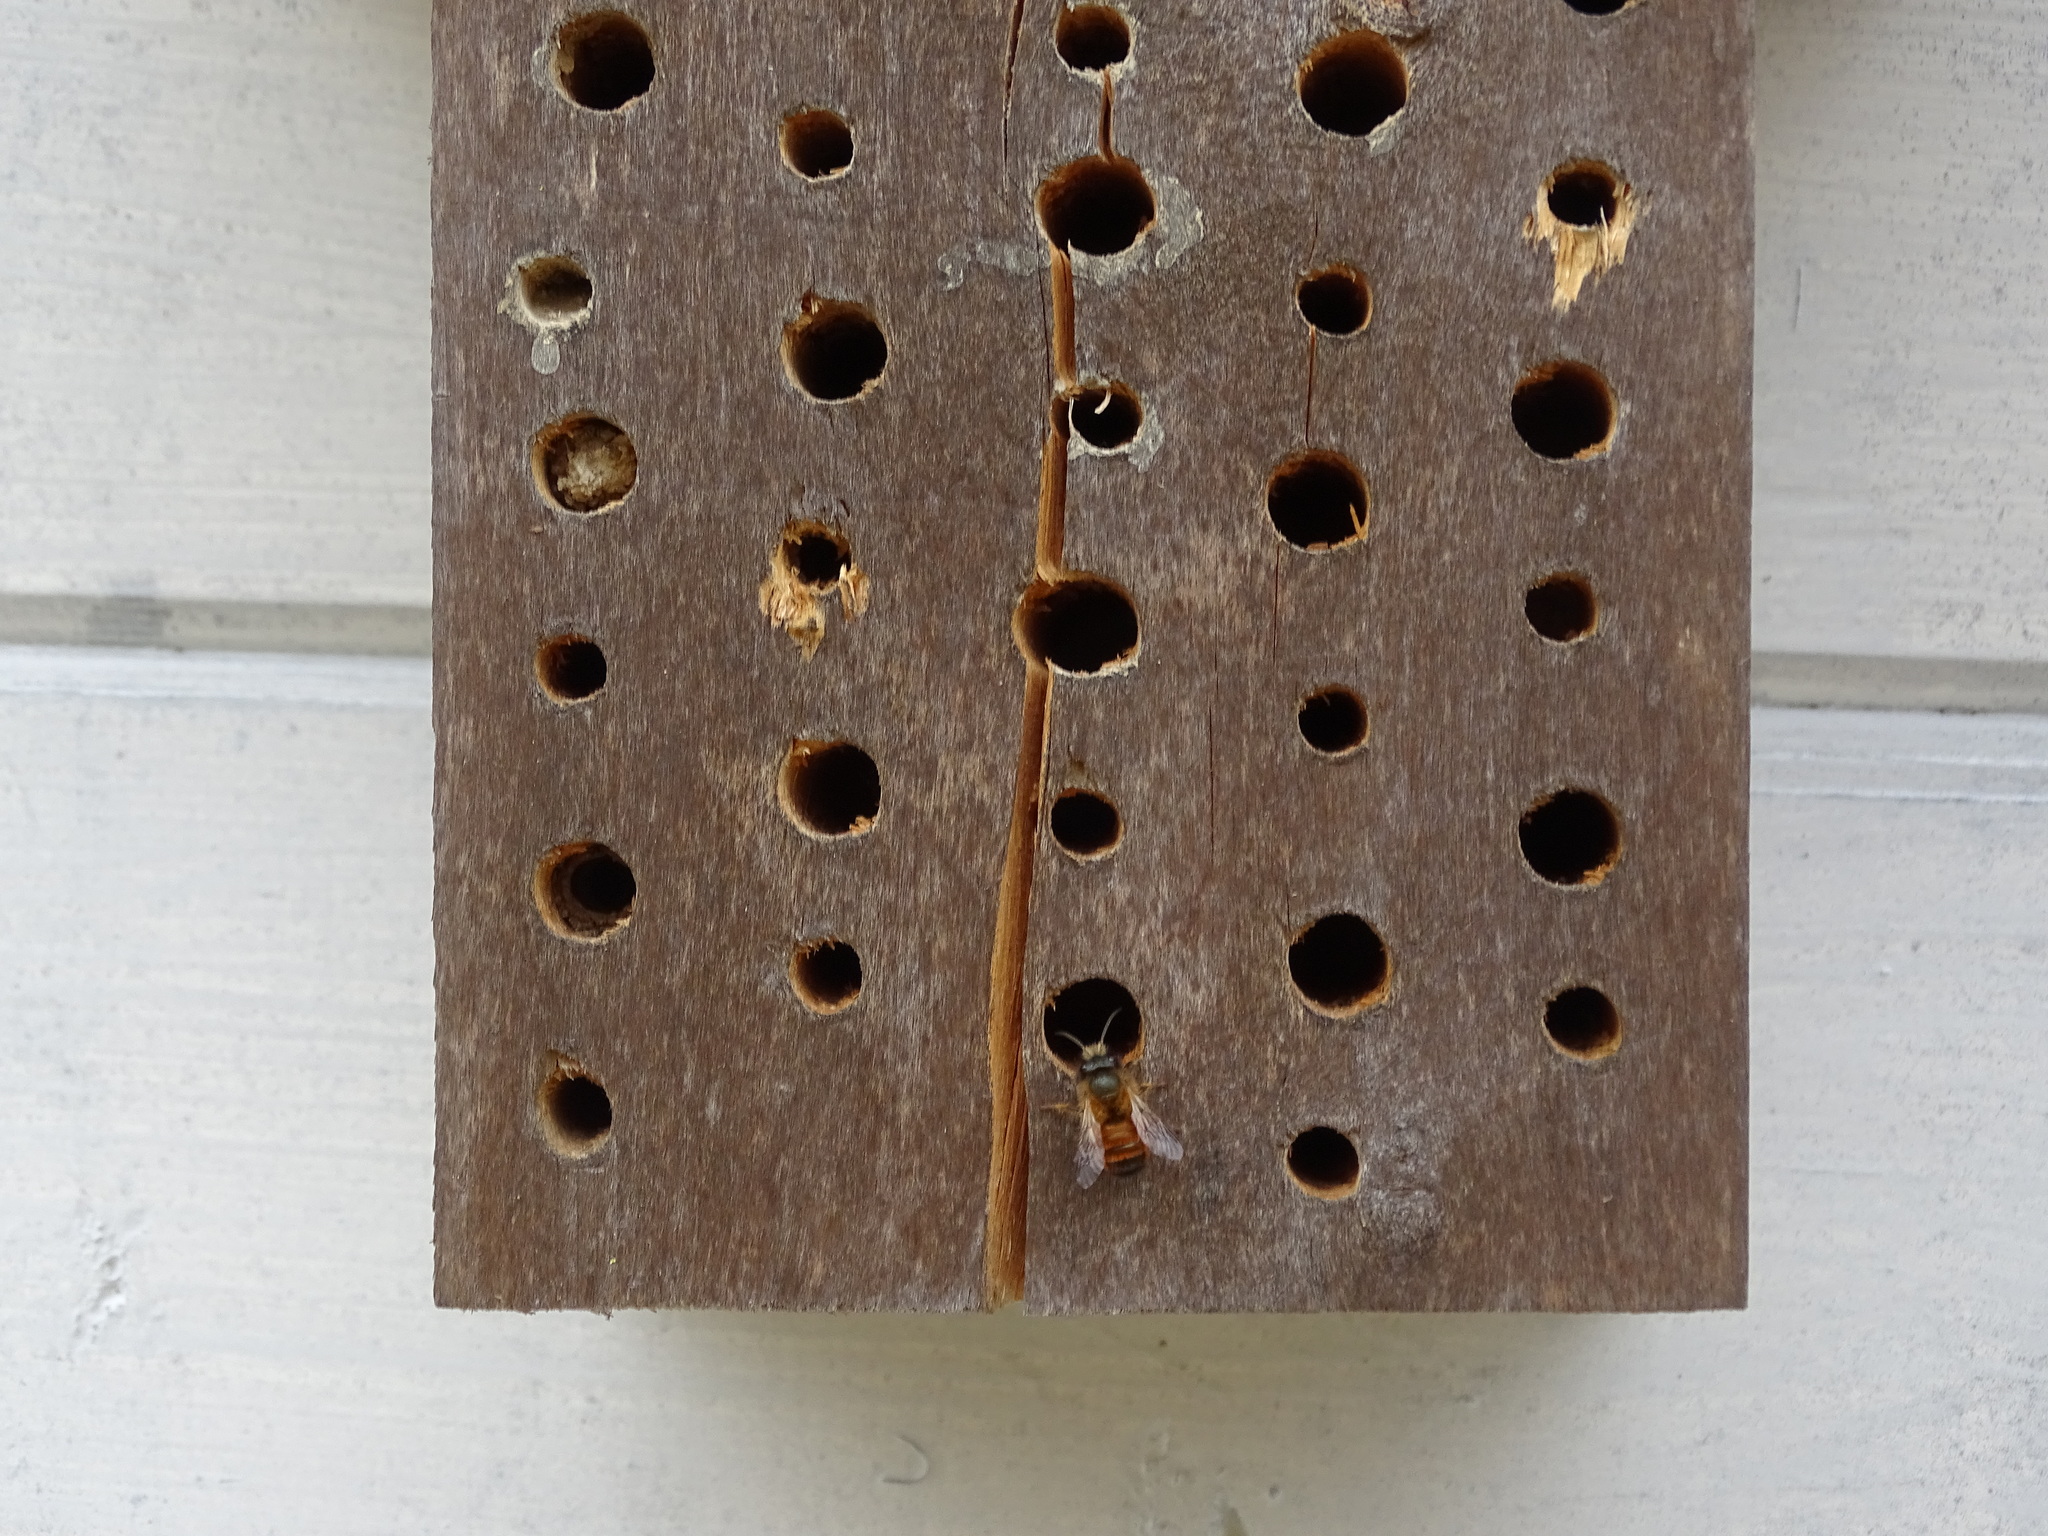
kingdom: Animalia
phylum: Arthropoda
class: Insecta
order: Hymenoptera
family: Megachilidae
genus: Osmia
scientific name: Osmia bicornis
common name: Red mason bee
